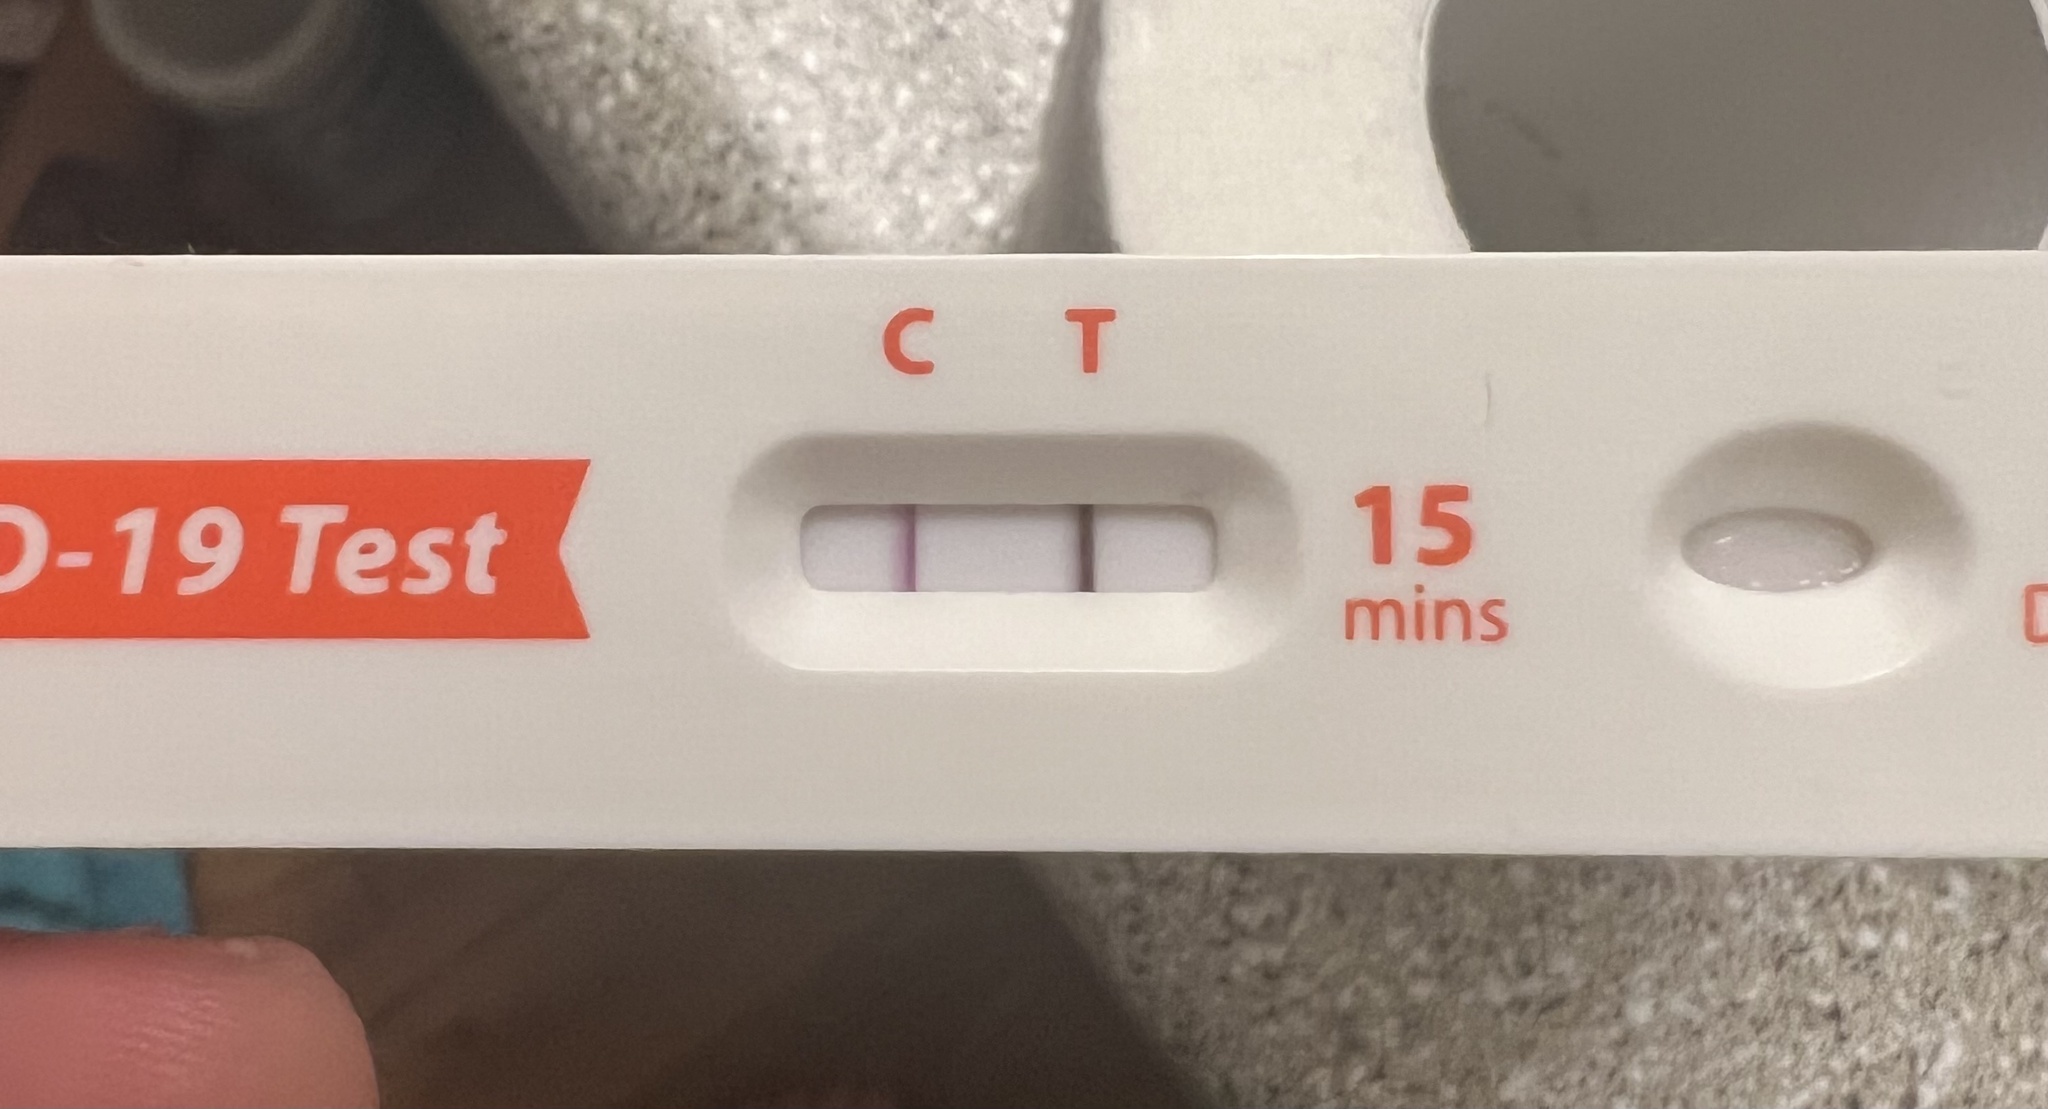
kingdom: Viruses
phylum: Pisuviricota
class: Pisoniviricetes
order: Nidovirales
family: Coronaviridae
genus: Betacoronavirus
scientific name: Betacoronavirus
